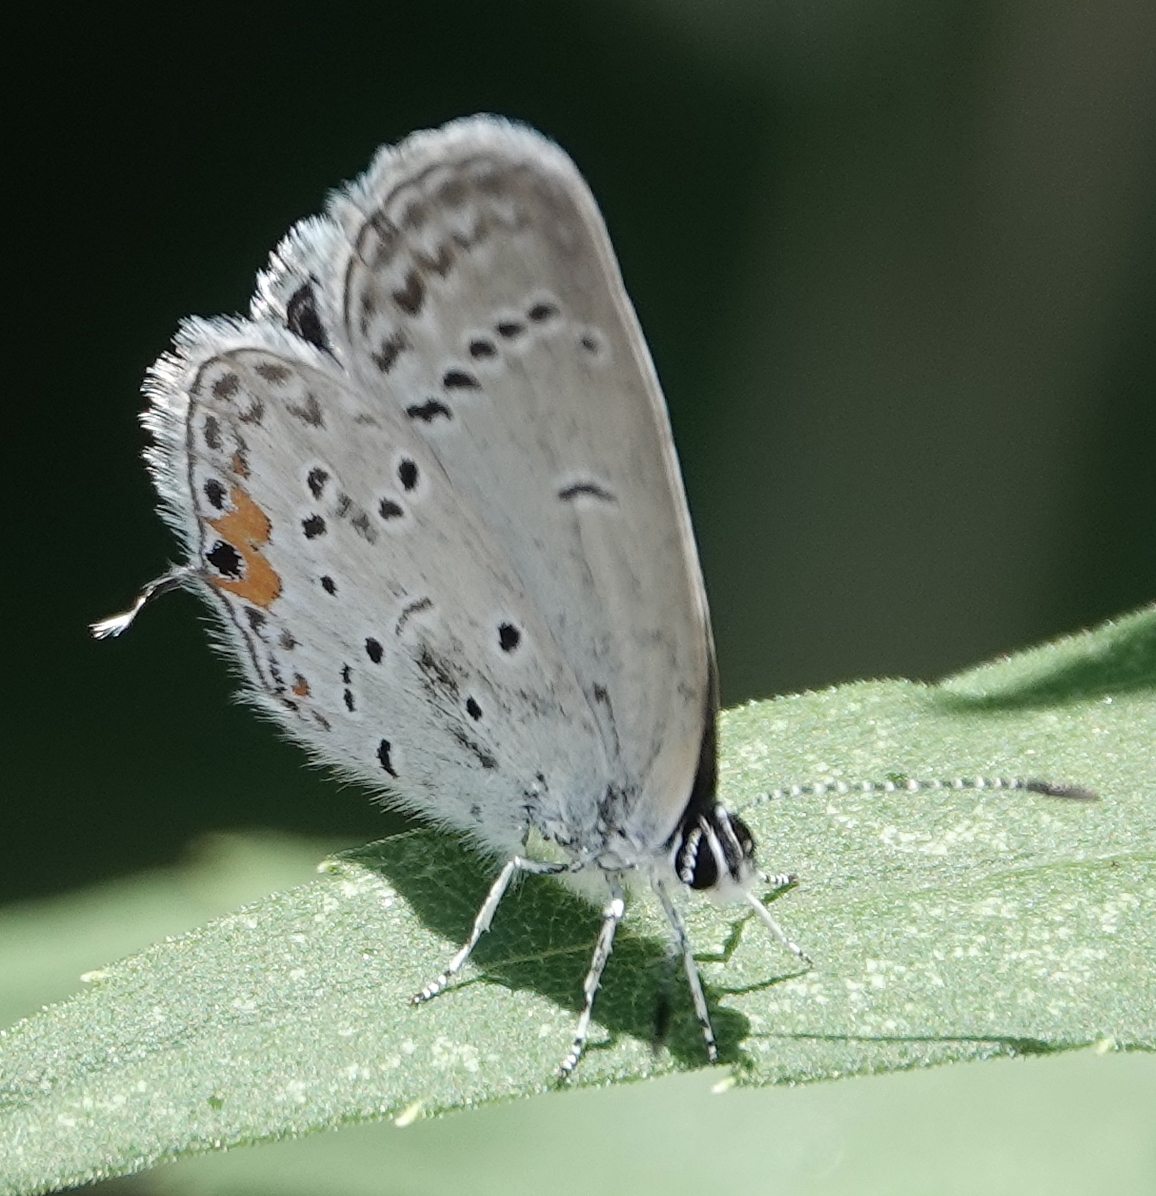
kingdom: Animalia
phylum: Arthropoda
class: Insecta
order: Lepidoptera
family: Lycaenidae
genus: Elkalyce
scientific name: Elkalyce comyntas
